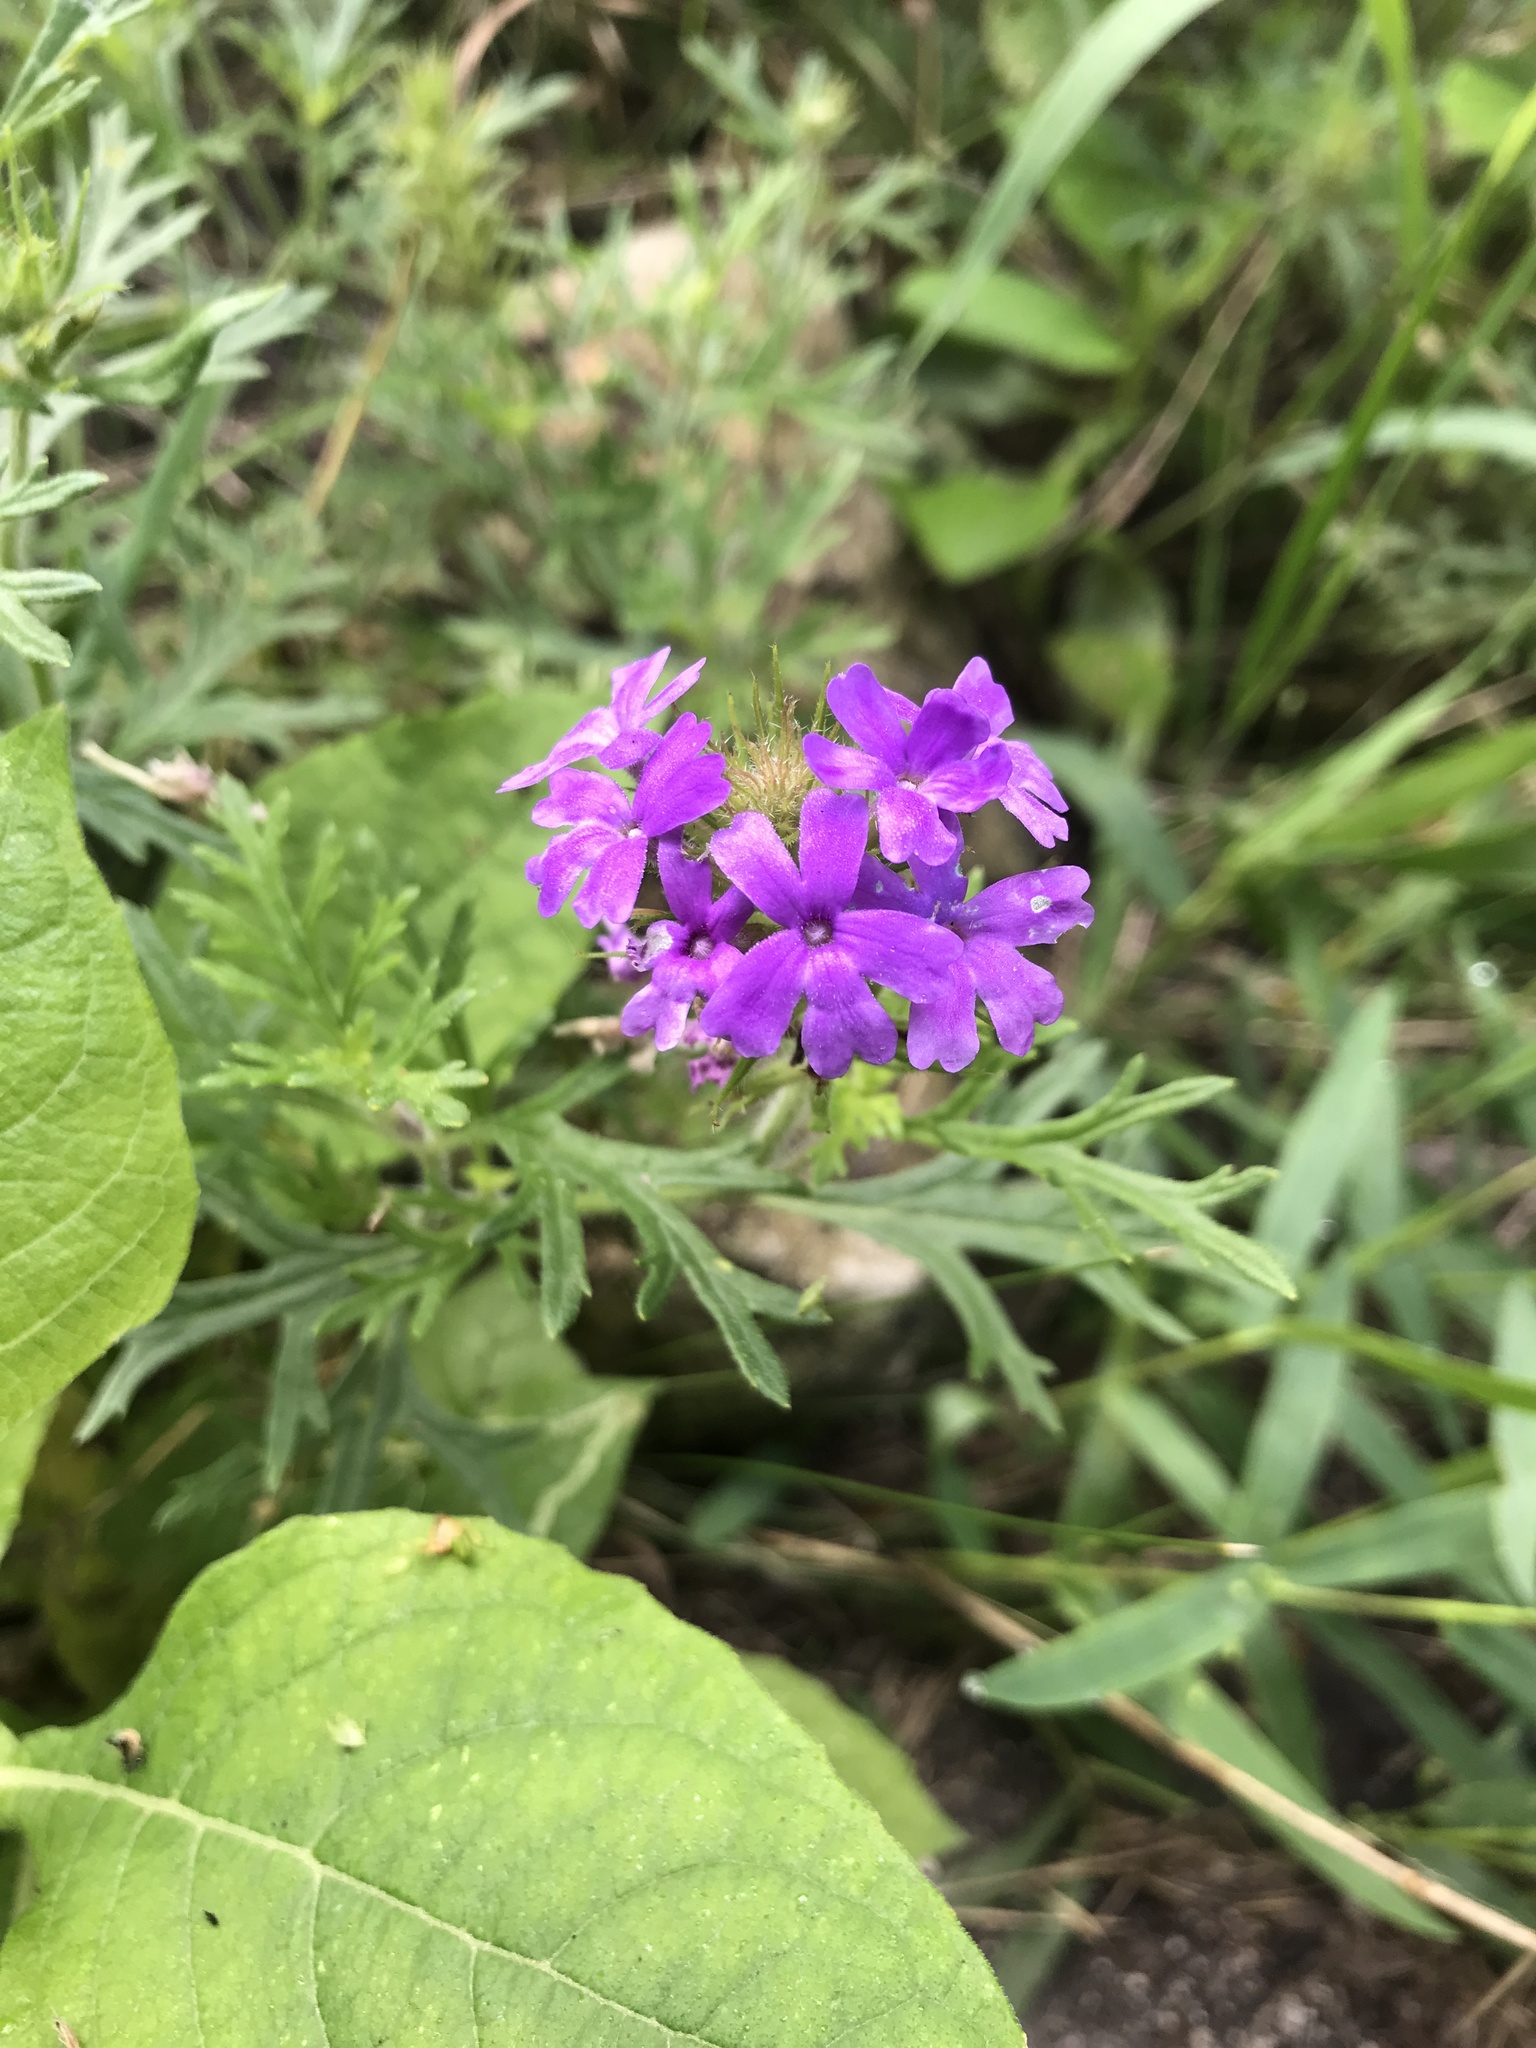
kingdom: Plantae
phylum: Tracheophyta
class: Magnoliopsida
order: Lamiales
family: Verbenaceae
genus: Verbena
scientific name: Verbena bipinnatifida
